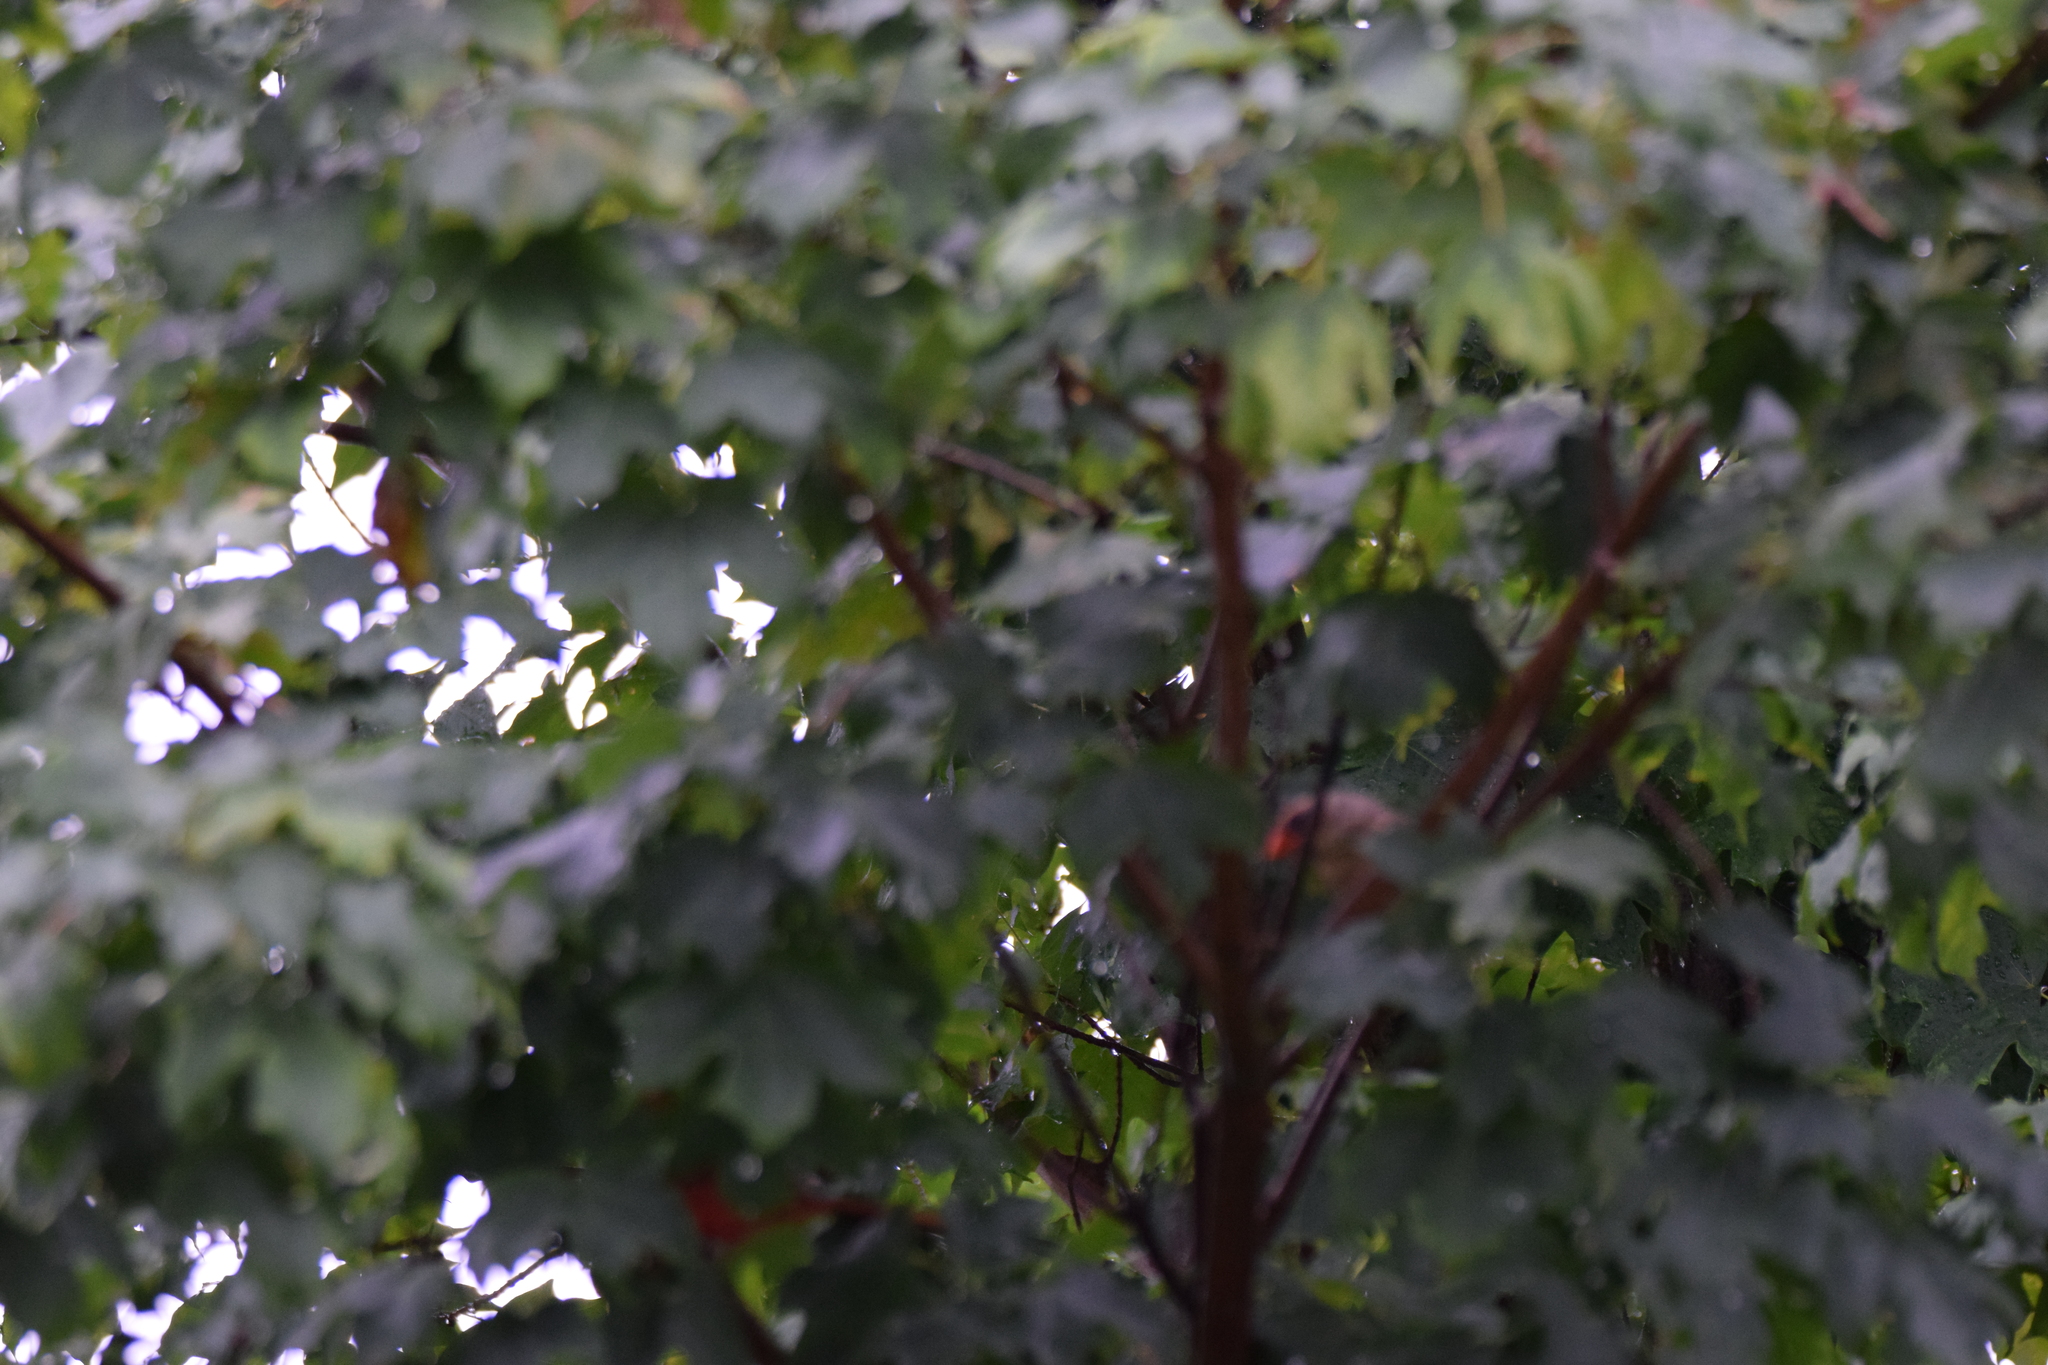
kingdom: Animalia
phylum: Chordata
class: Aves
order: Passeriformes
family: Cardinalidae
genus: Cardinalis
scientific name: Cardinalis cardinalis
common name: Northern cardinal
